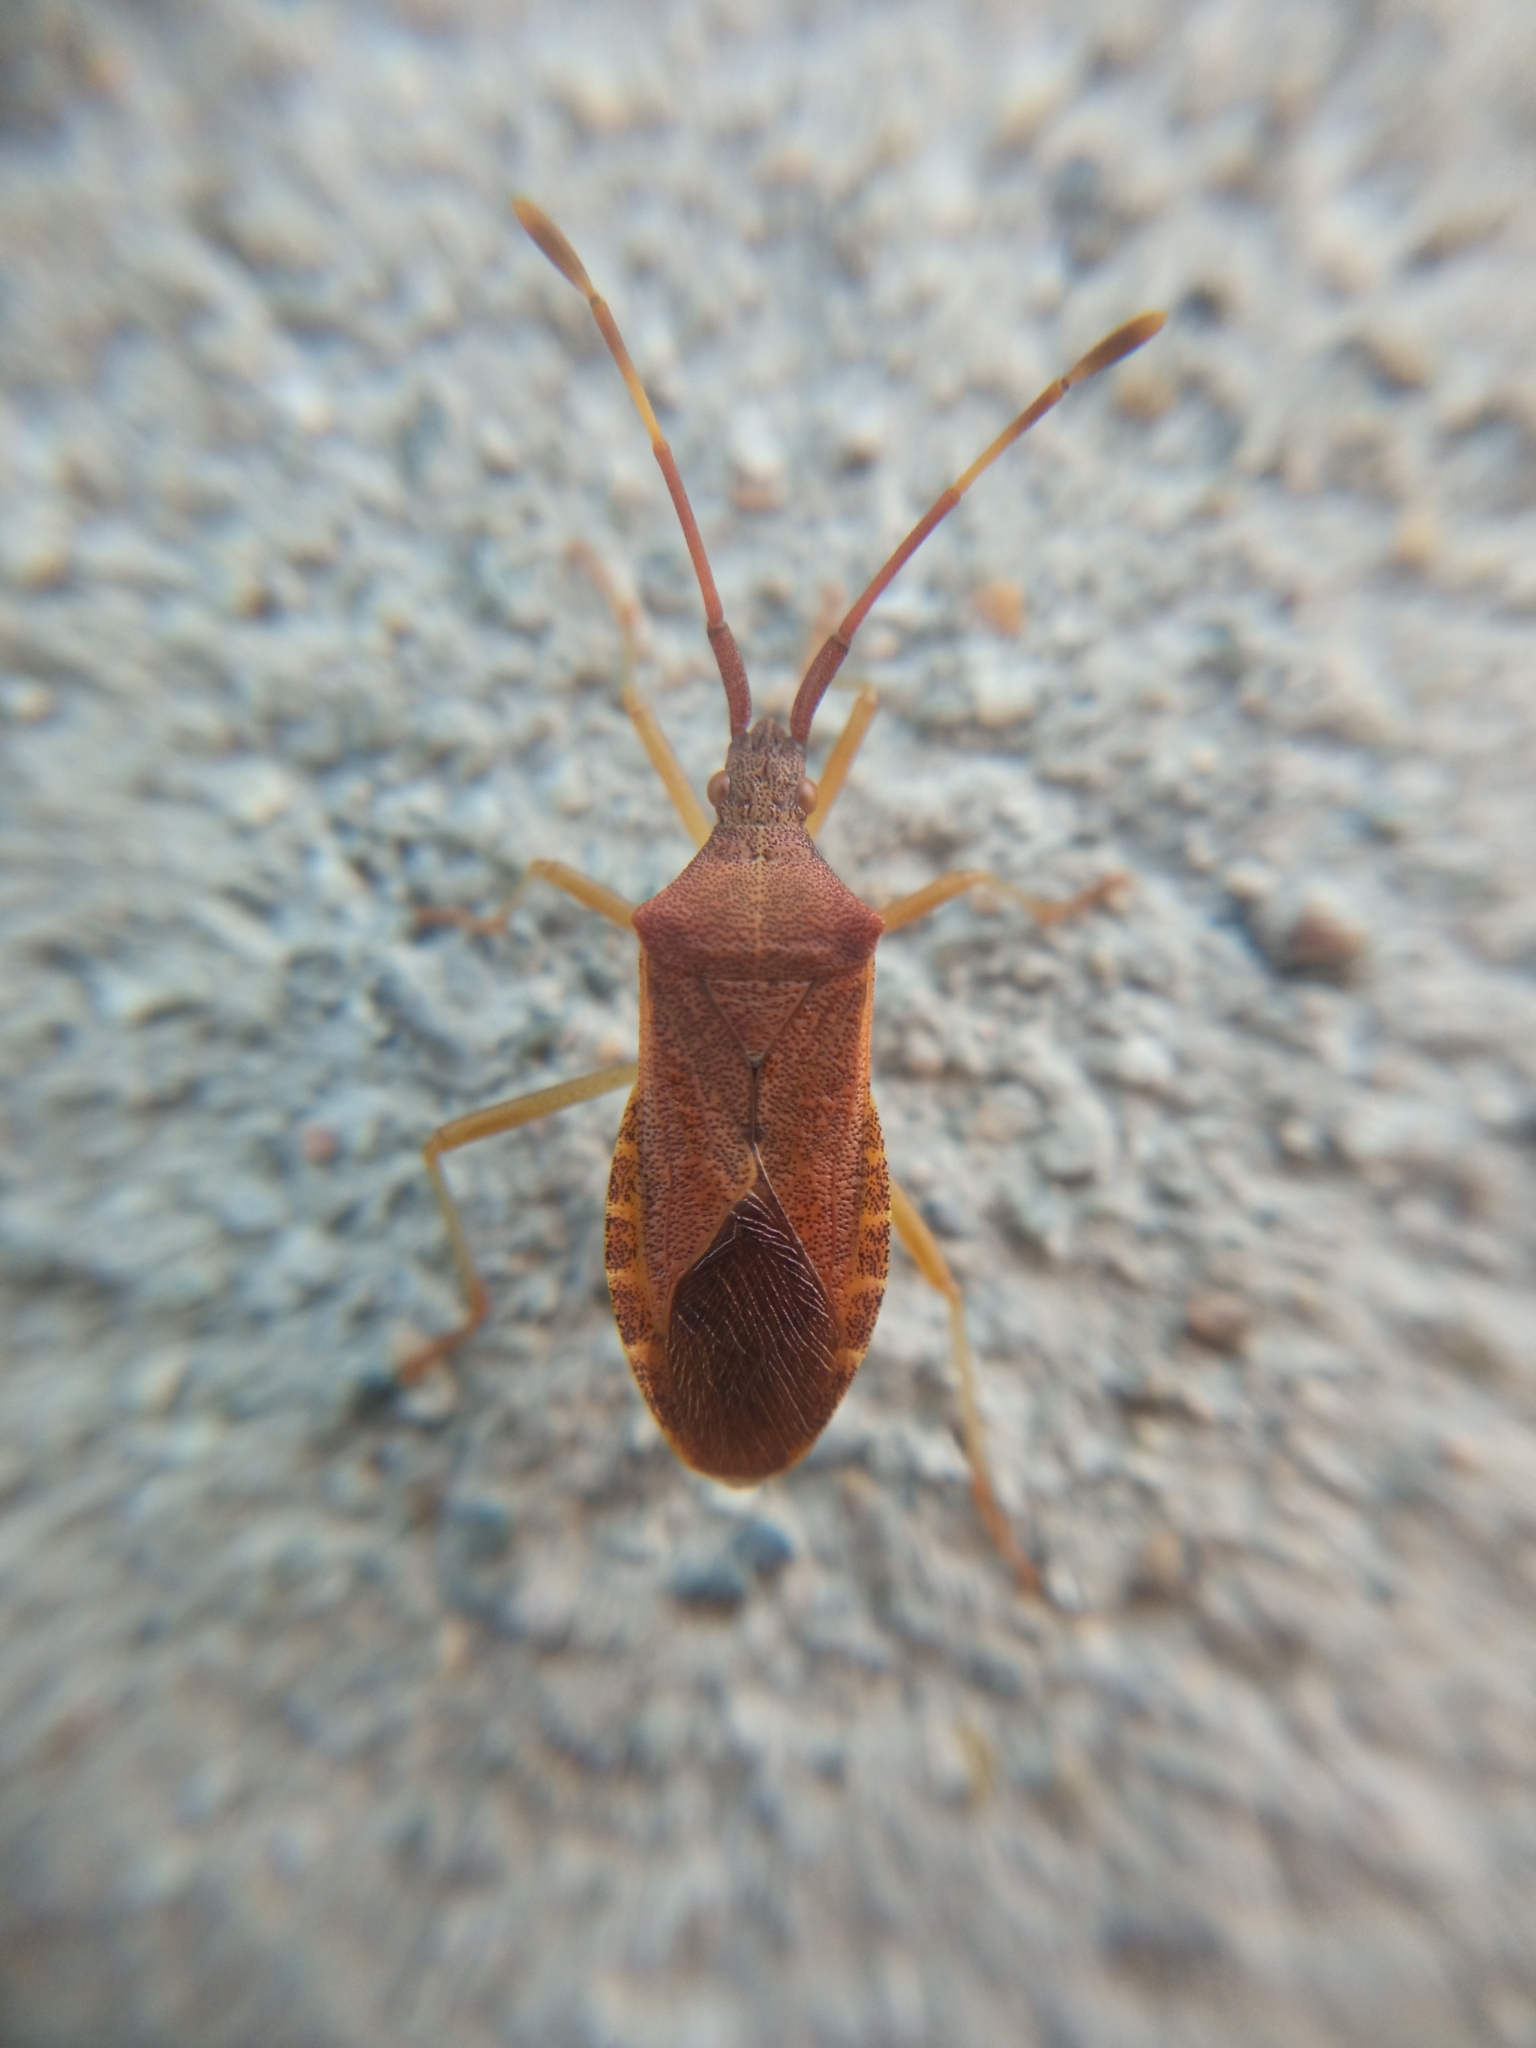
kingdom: Animalia
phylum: Arthropoda
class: Insecta
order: Hemiptera
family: Coreidae
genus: Gonocerus
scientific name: Gonocerus acuteangulatus
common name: Box bug
